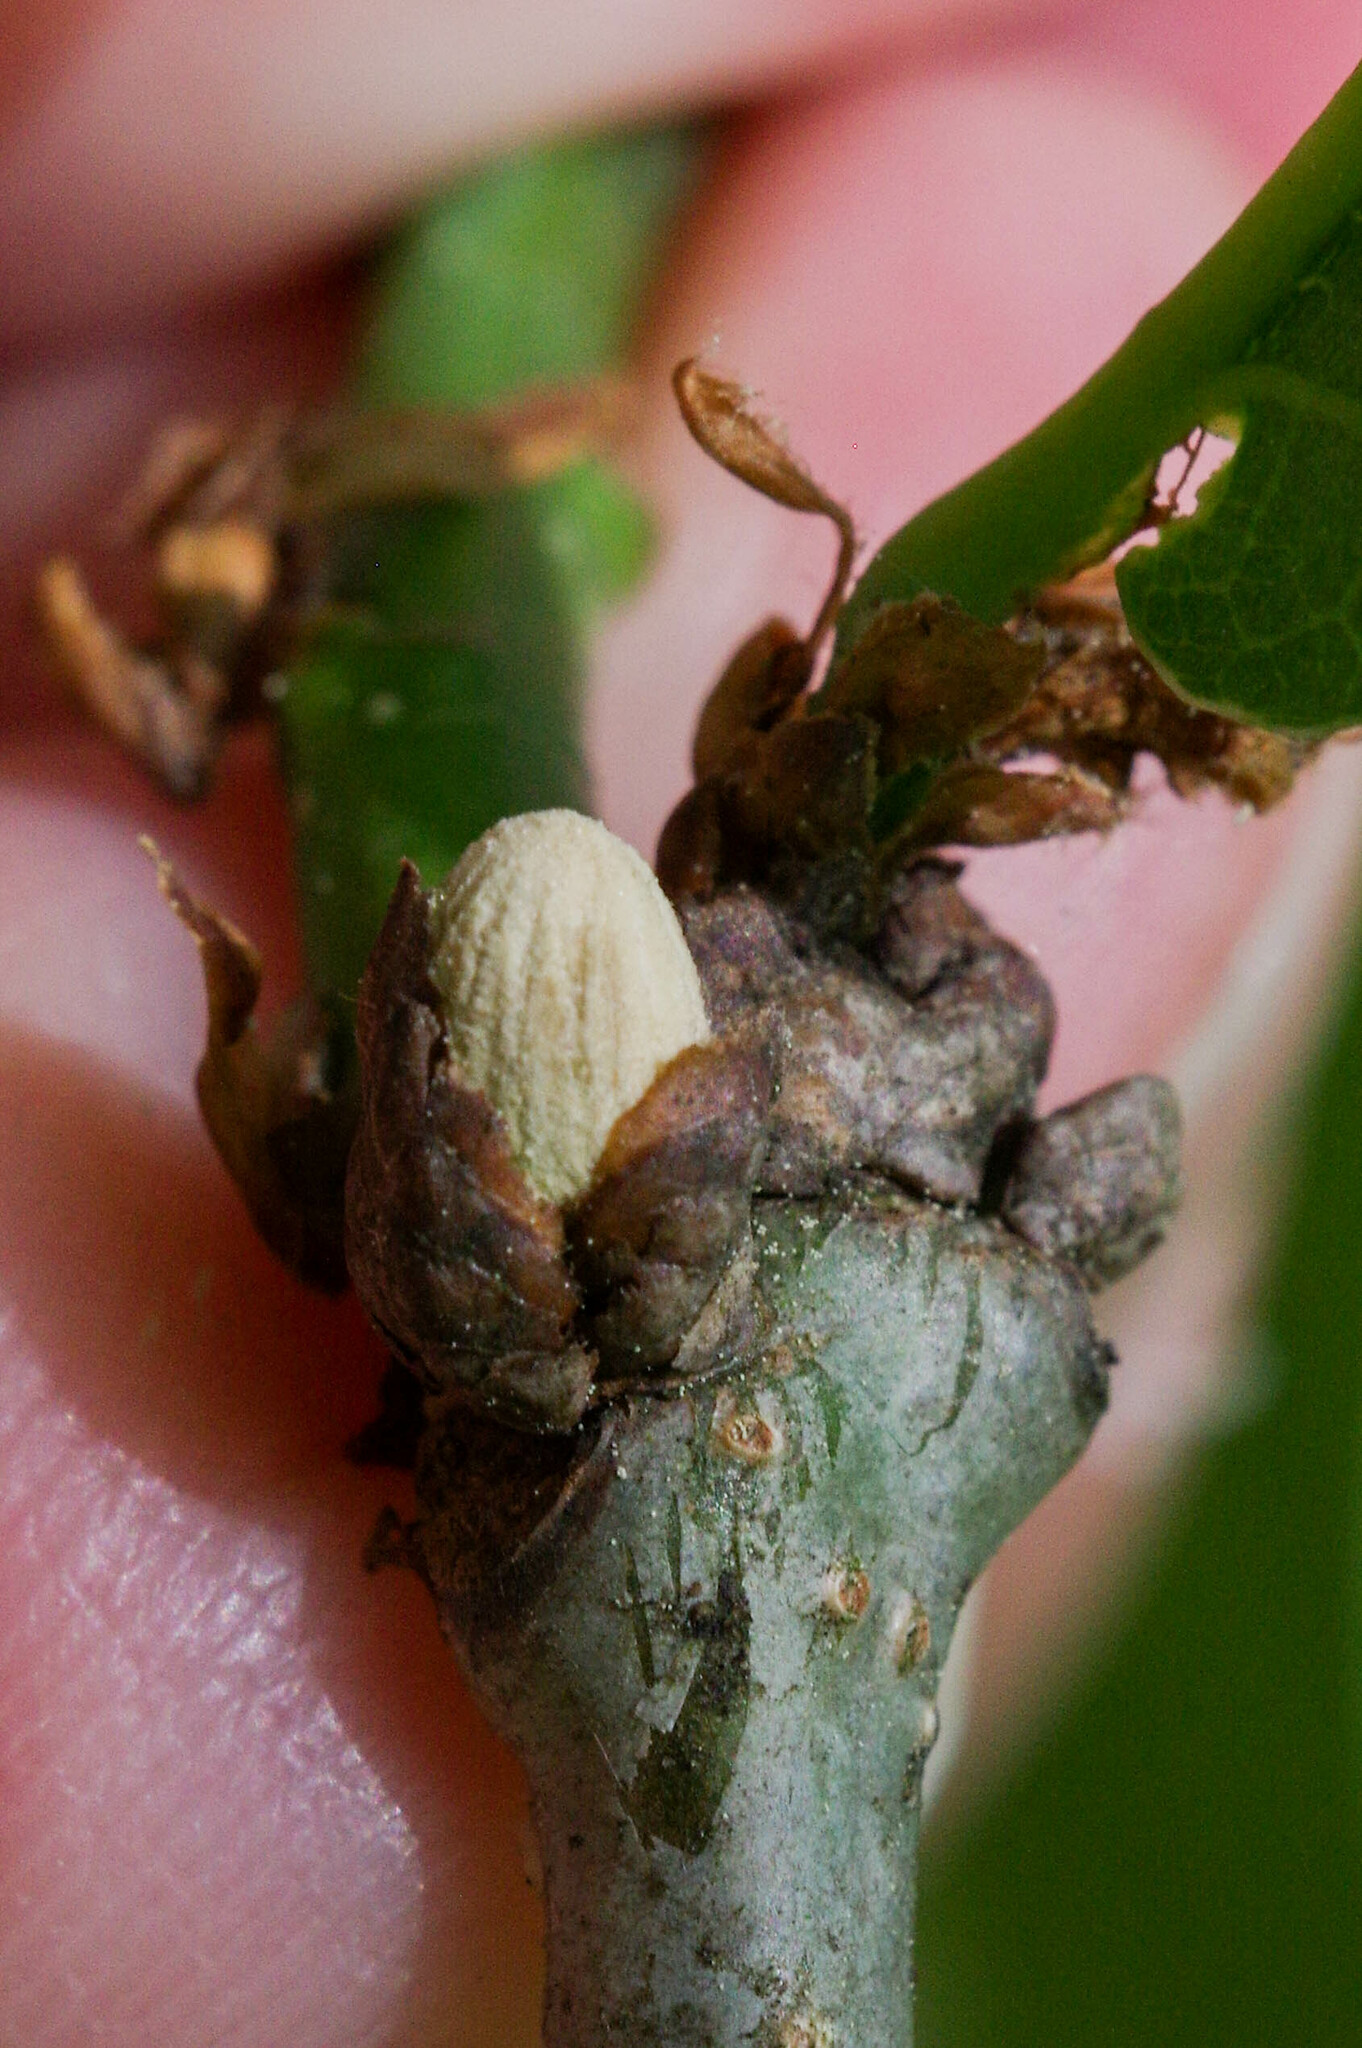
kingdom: Animalia
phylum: Arthropoda
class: Insecta
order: Hymenoptera
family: Cynipidae
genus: Andricus
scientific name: Andricus paradoxus
